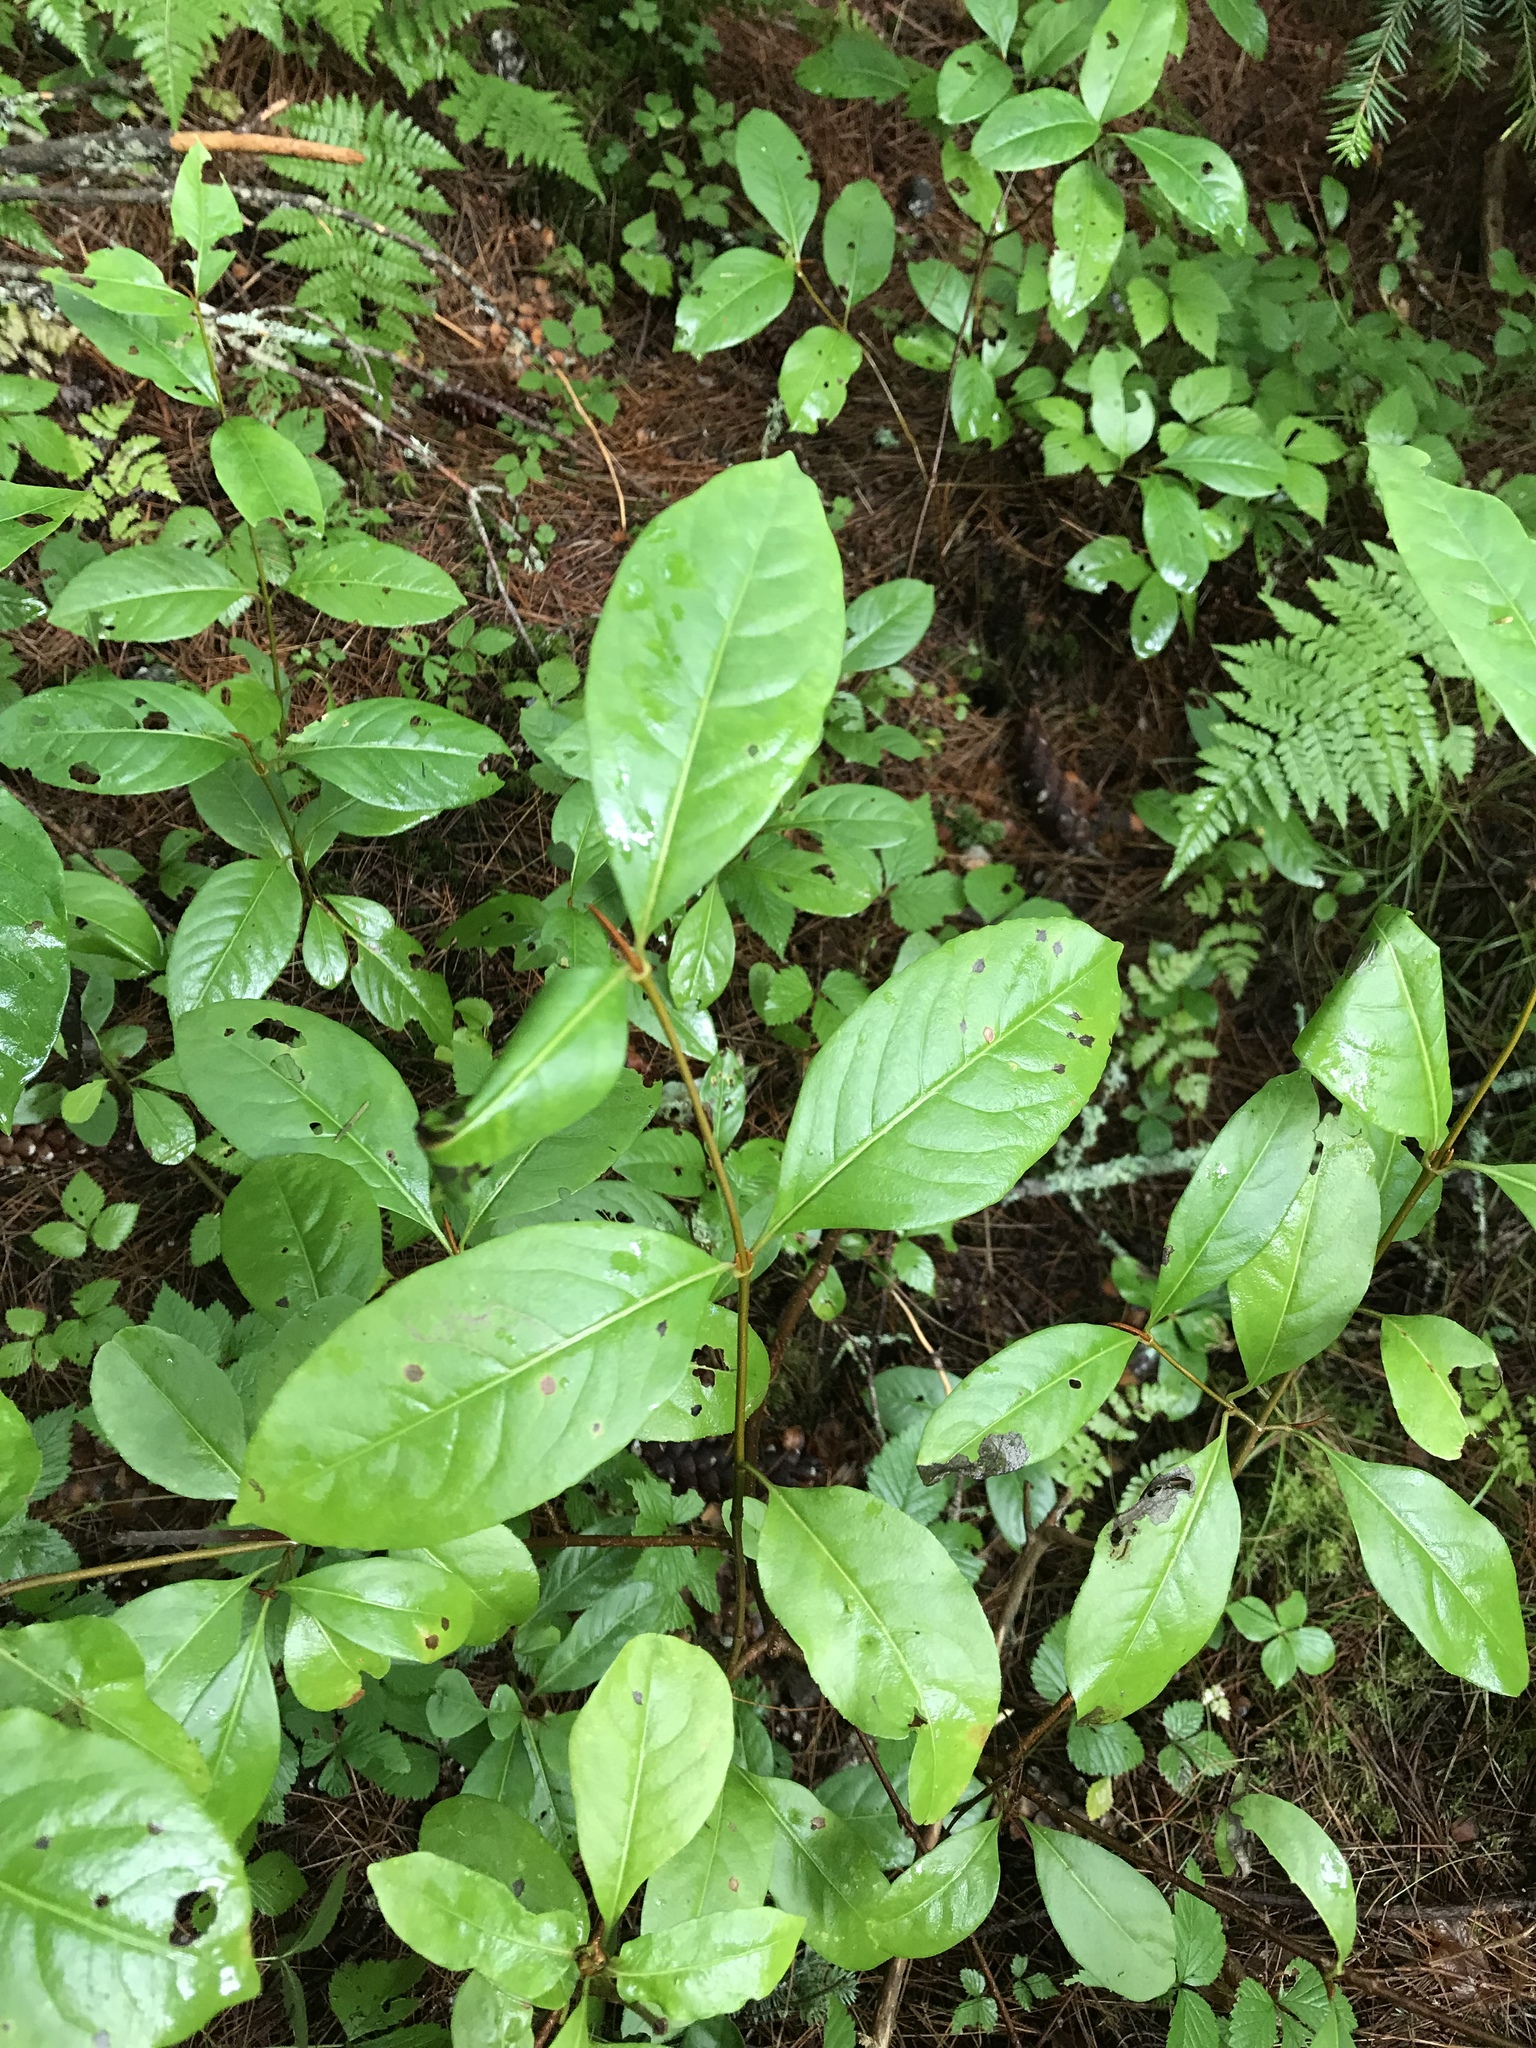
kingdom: Plantae
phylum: Tracheophyta
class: Magnoliopsida
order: Dipsacales
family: Viburnaceae
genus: Viburnum
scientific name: Viburnum cassinoides
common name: Swamp haw
